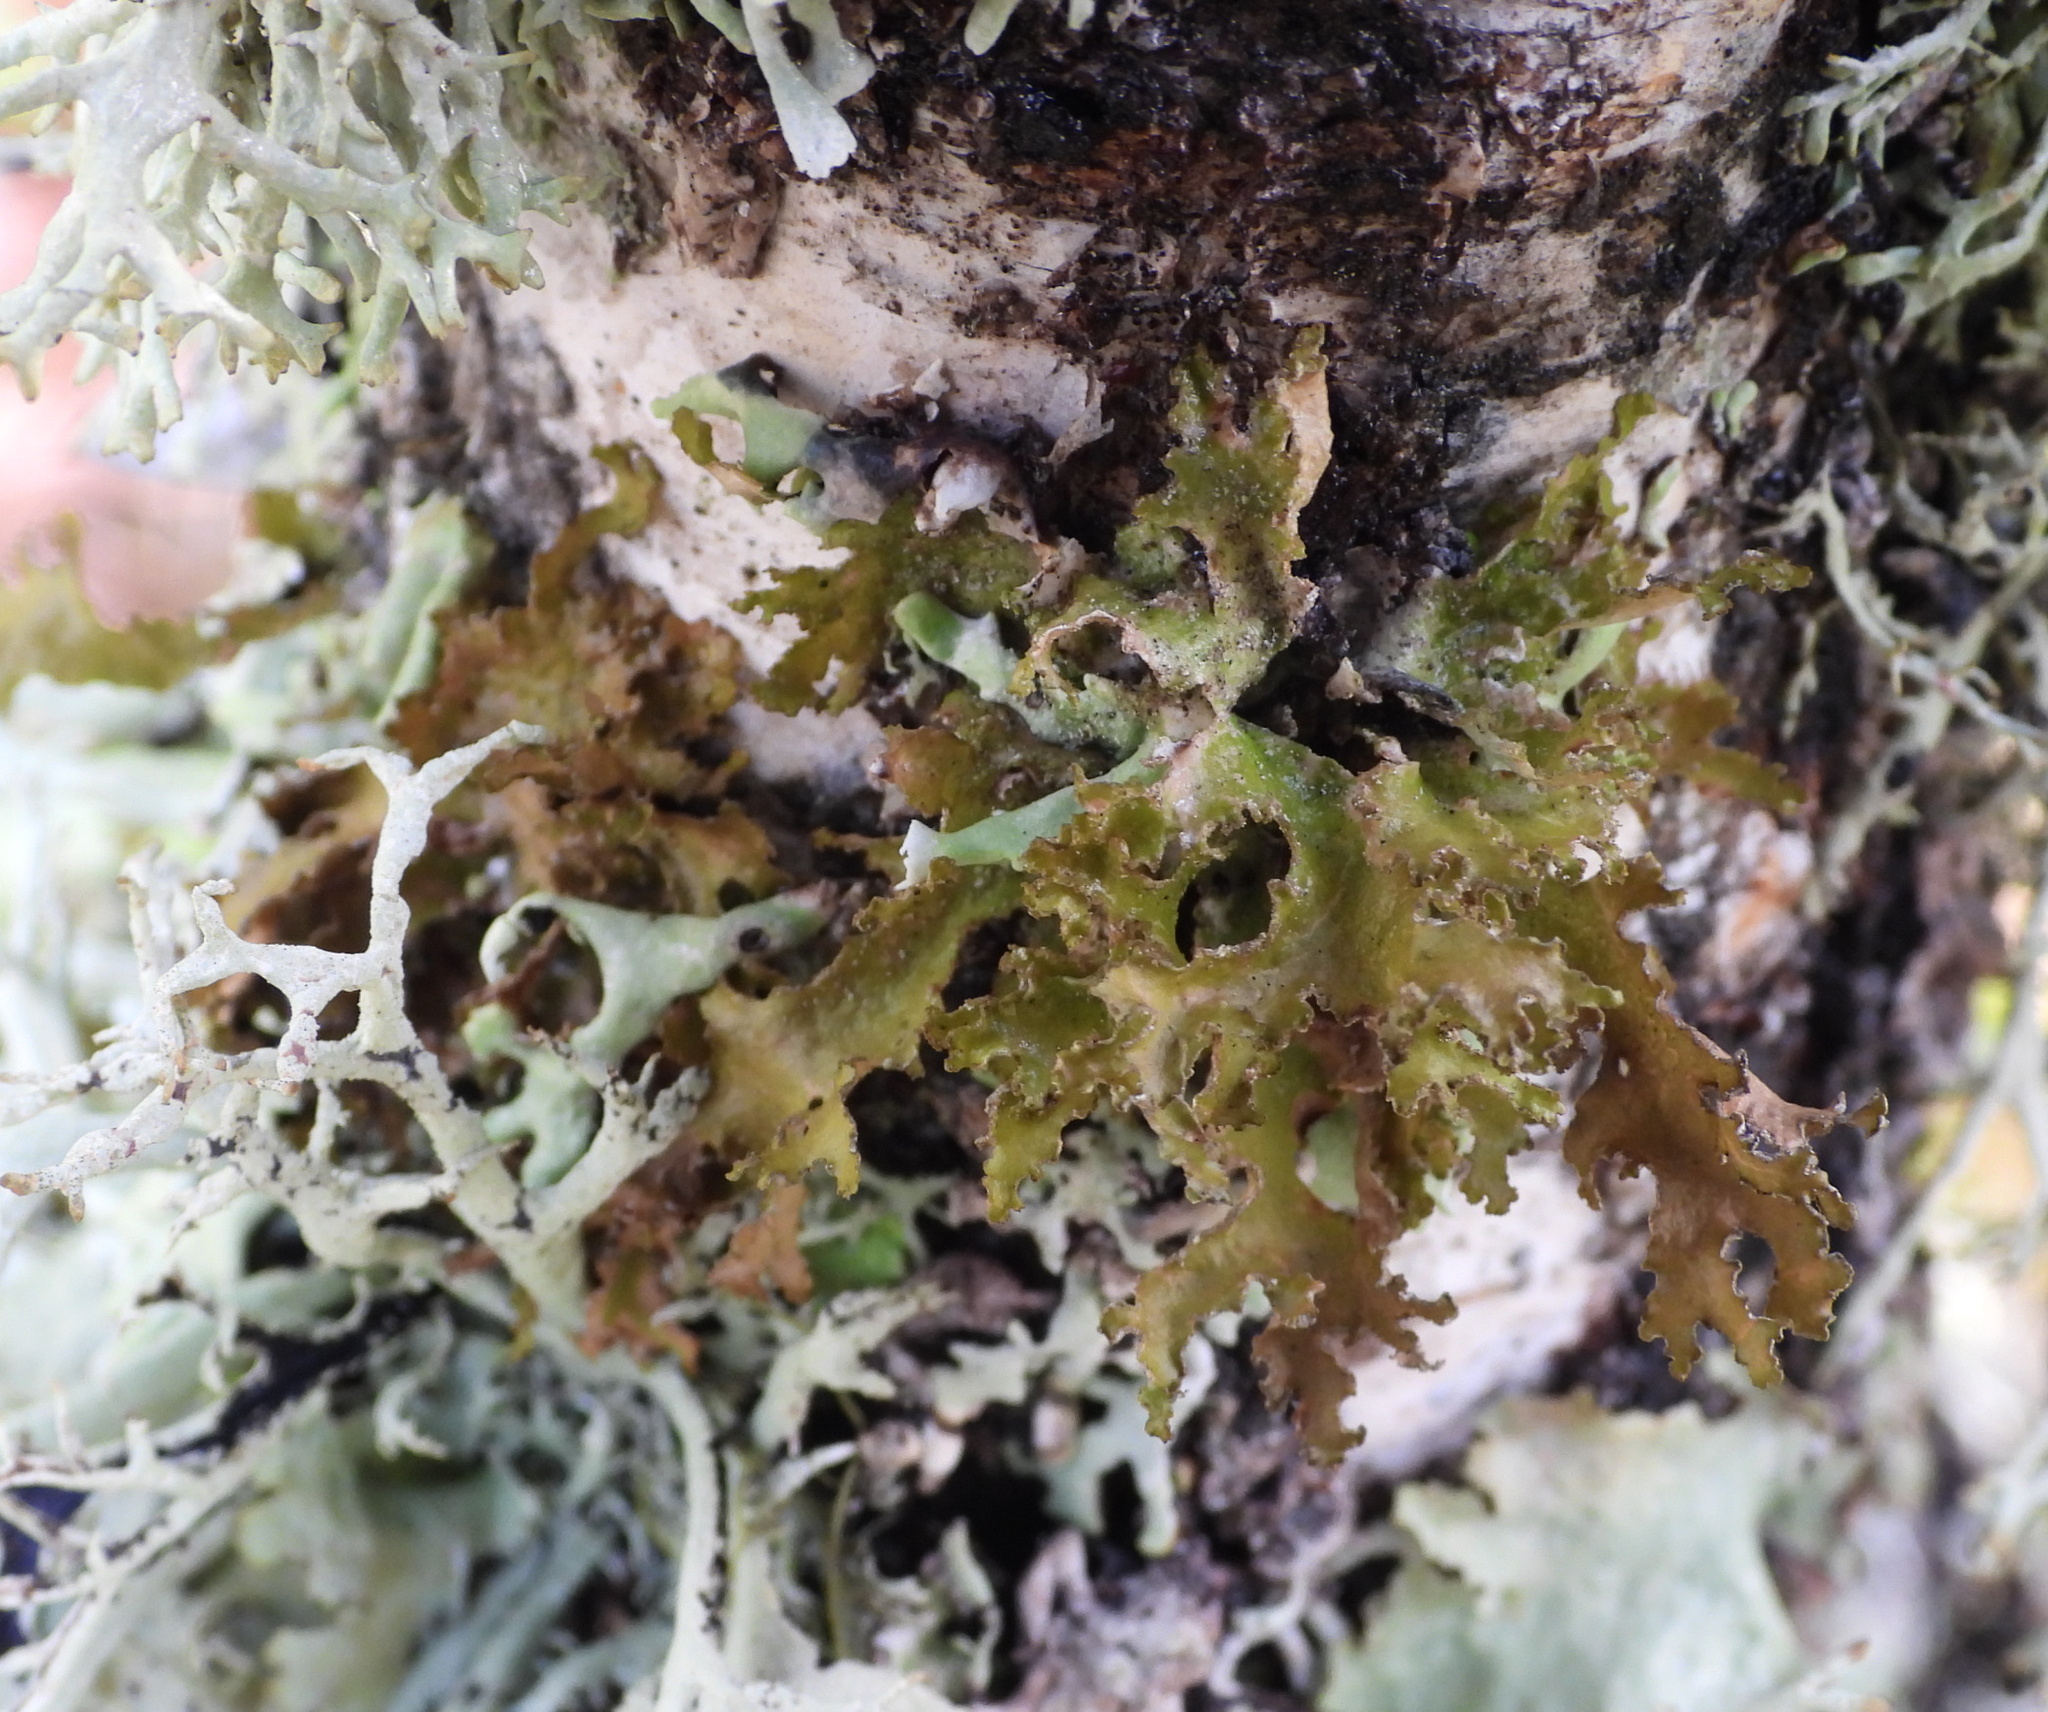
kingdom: Fungi
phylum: Ascomycota
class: Lecanoromycetes
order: Lecanorales
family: Parmeliaceae
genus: Nephromopsis
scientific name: Nephromopsis chlorophylla
